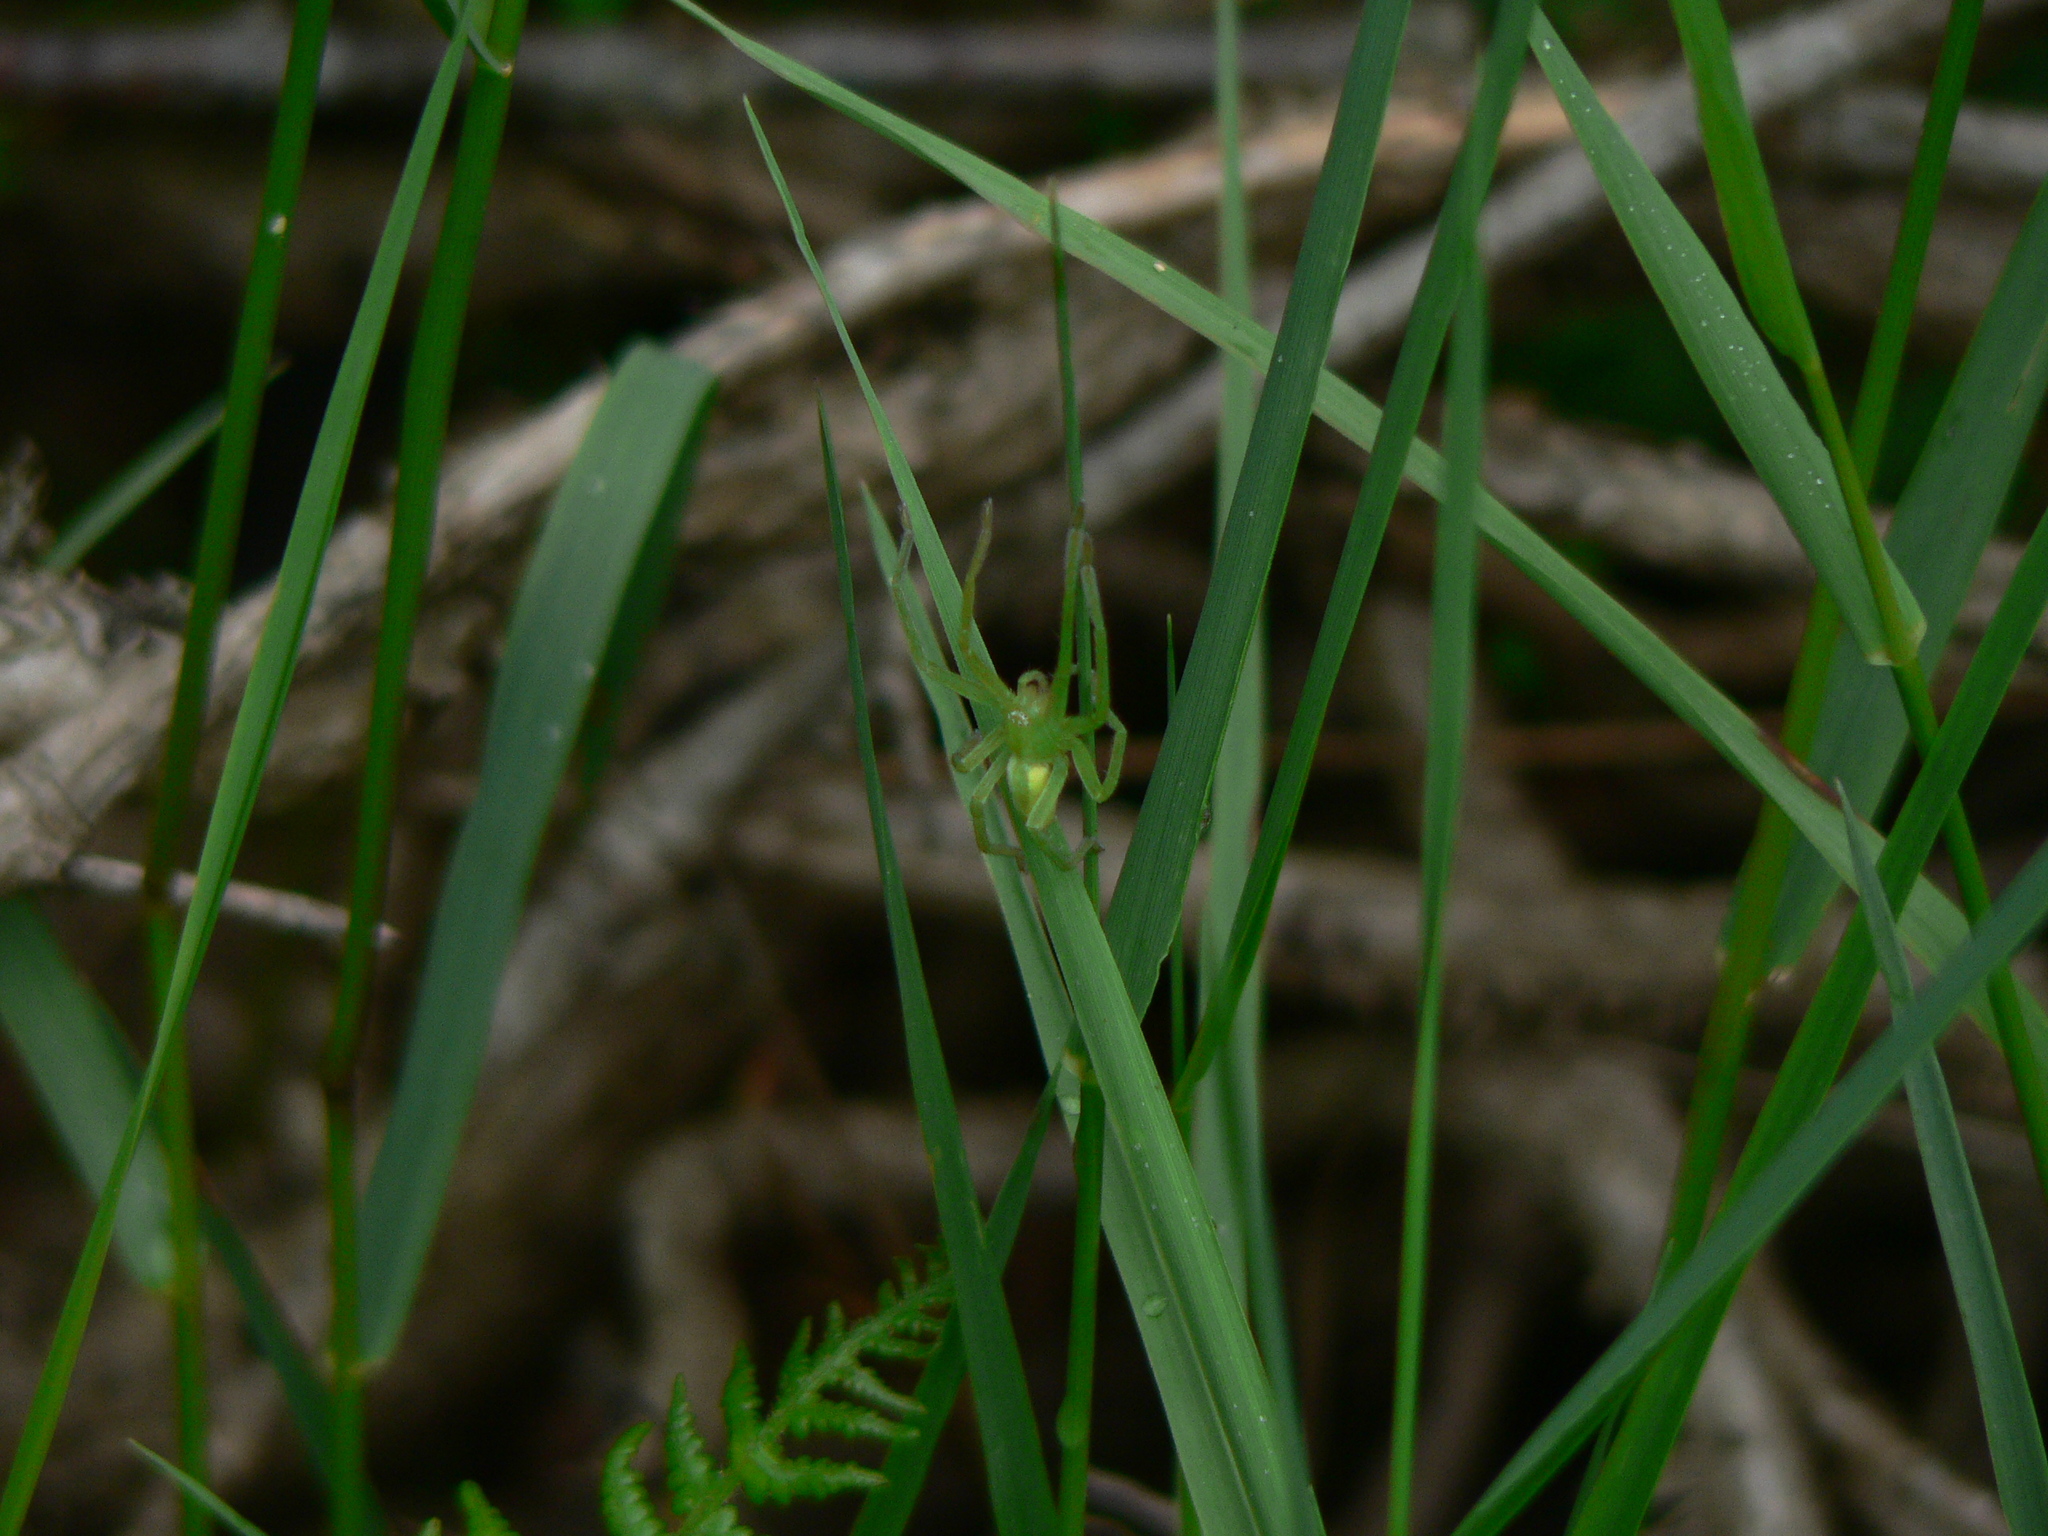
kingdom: Animalia
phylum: Arthropoda
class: Arachnida
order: Araneae
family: Sparassidae
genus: Micrommata
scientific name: Micrommata virescens
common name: Green spider
